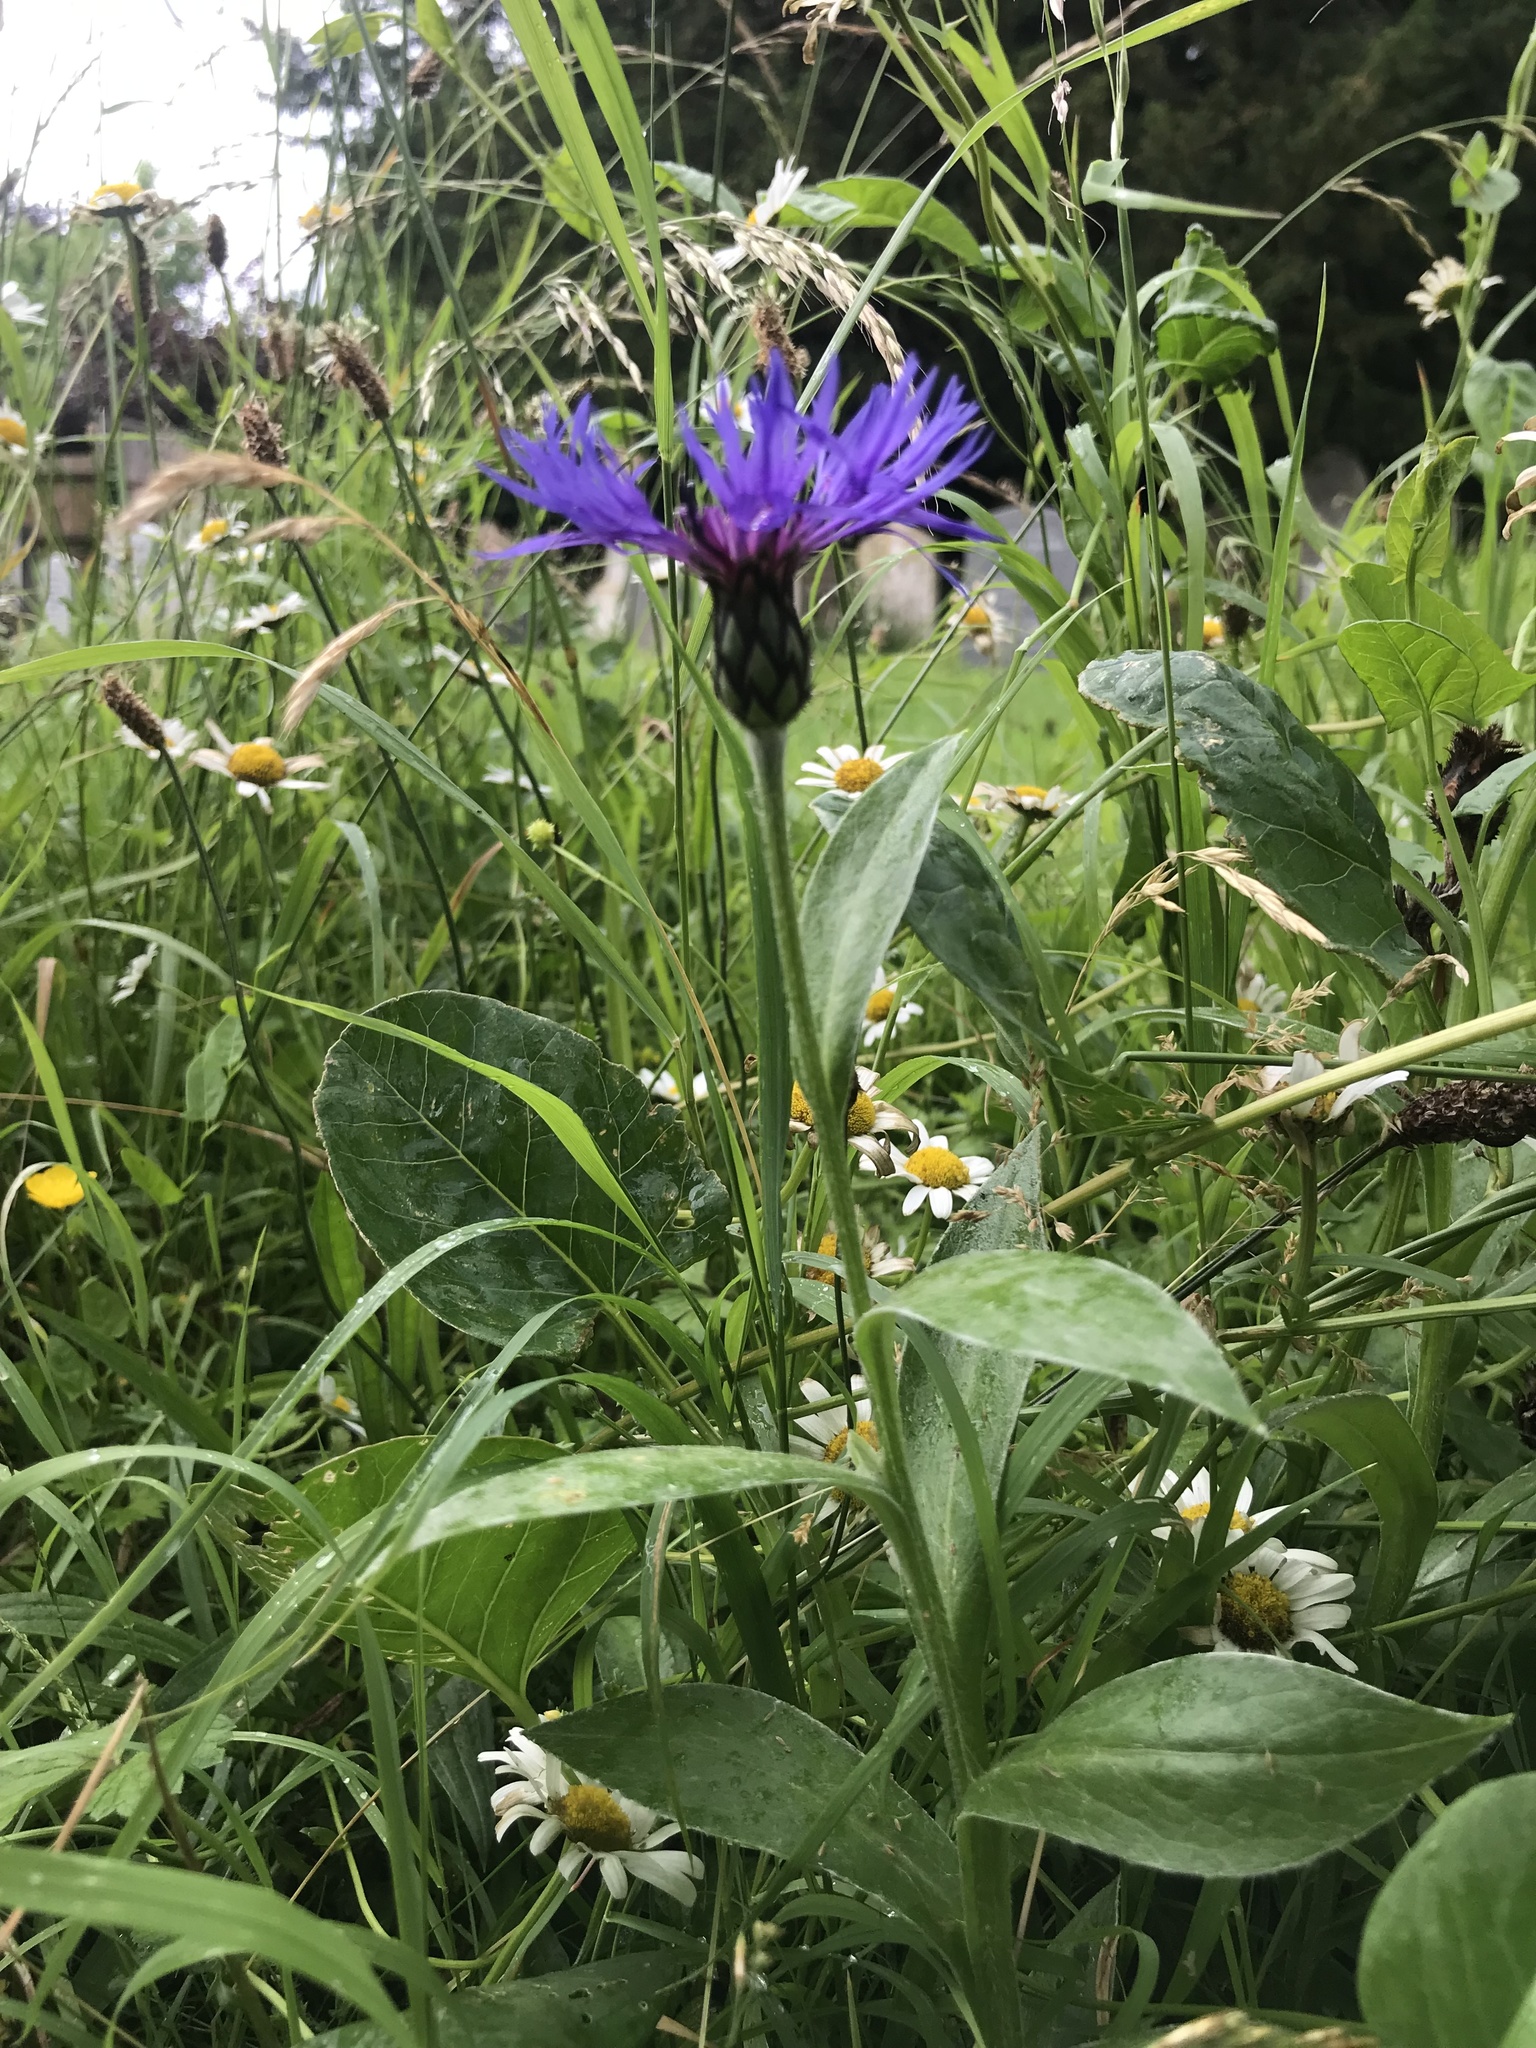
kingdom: Plantae
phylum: Tracheophyta
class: Magnoliopsida
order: Asterales
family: Asteraceae
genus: Centaurea
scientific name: Centaurea montana
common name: Perennial cornflower
